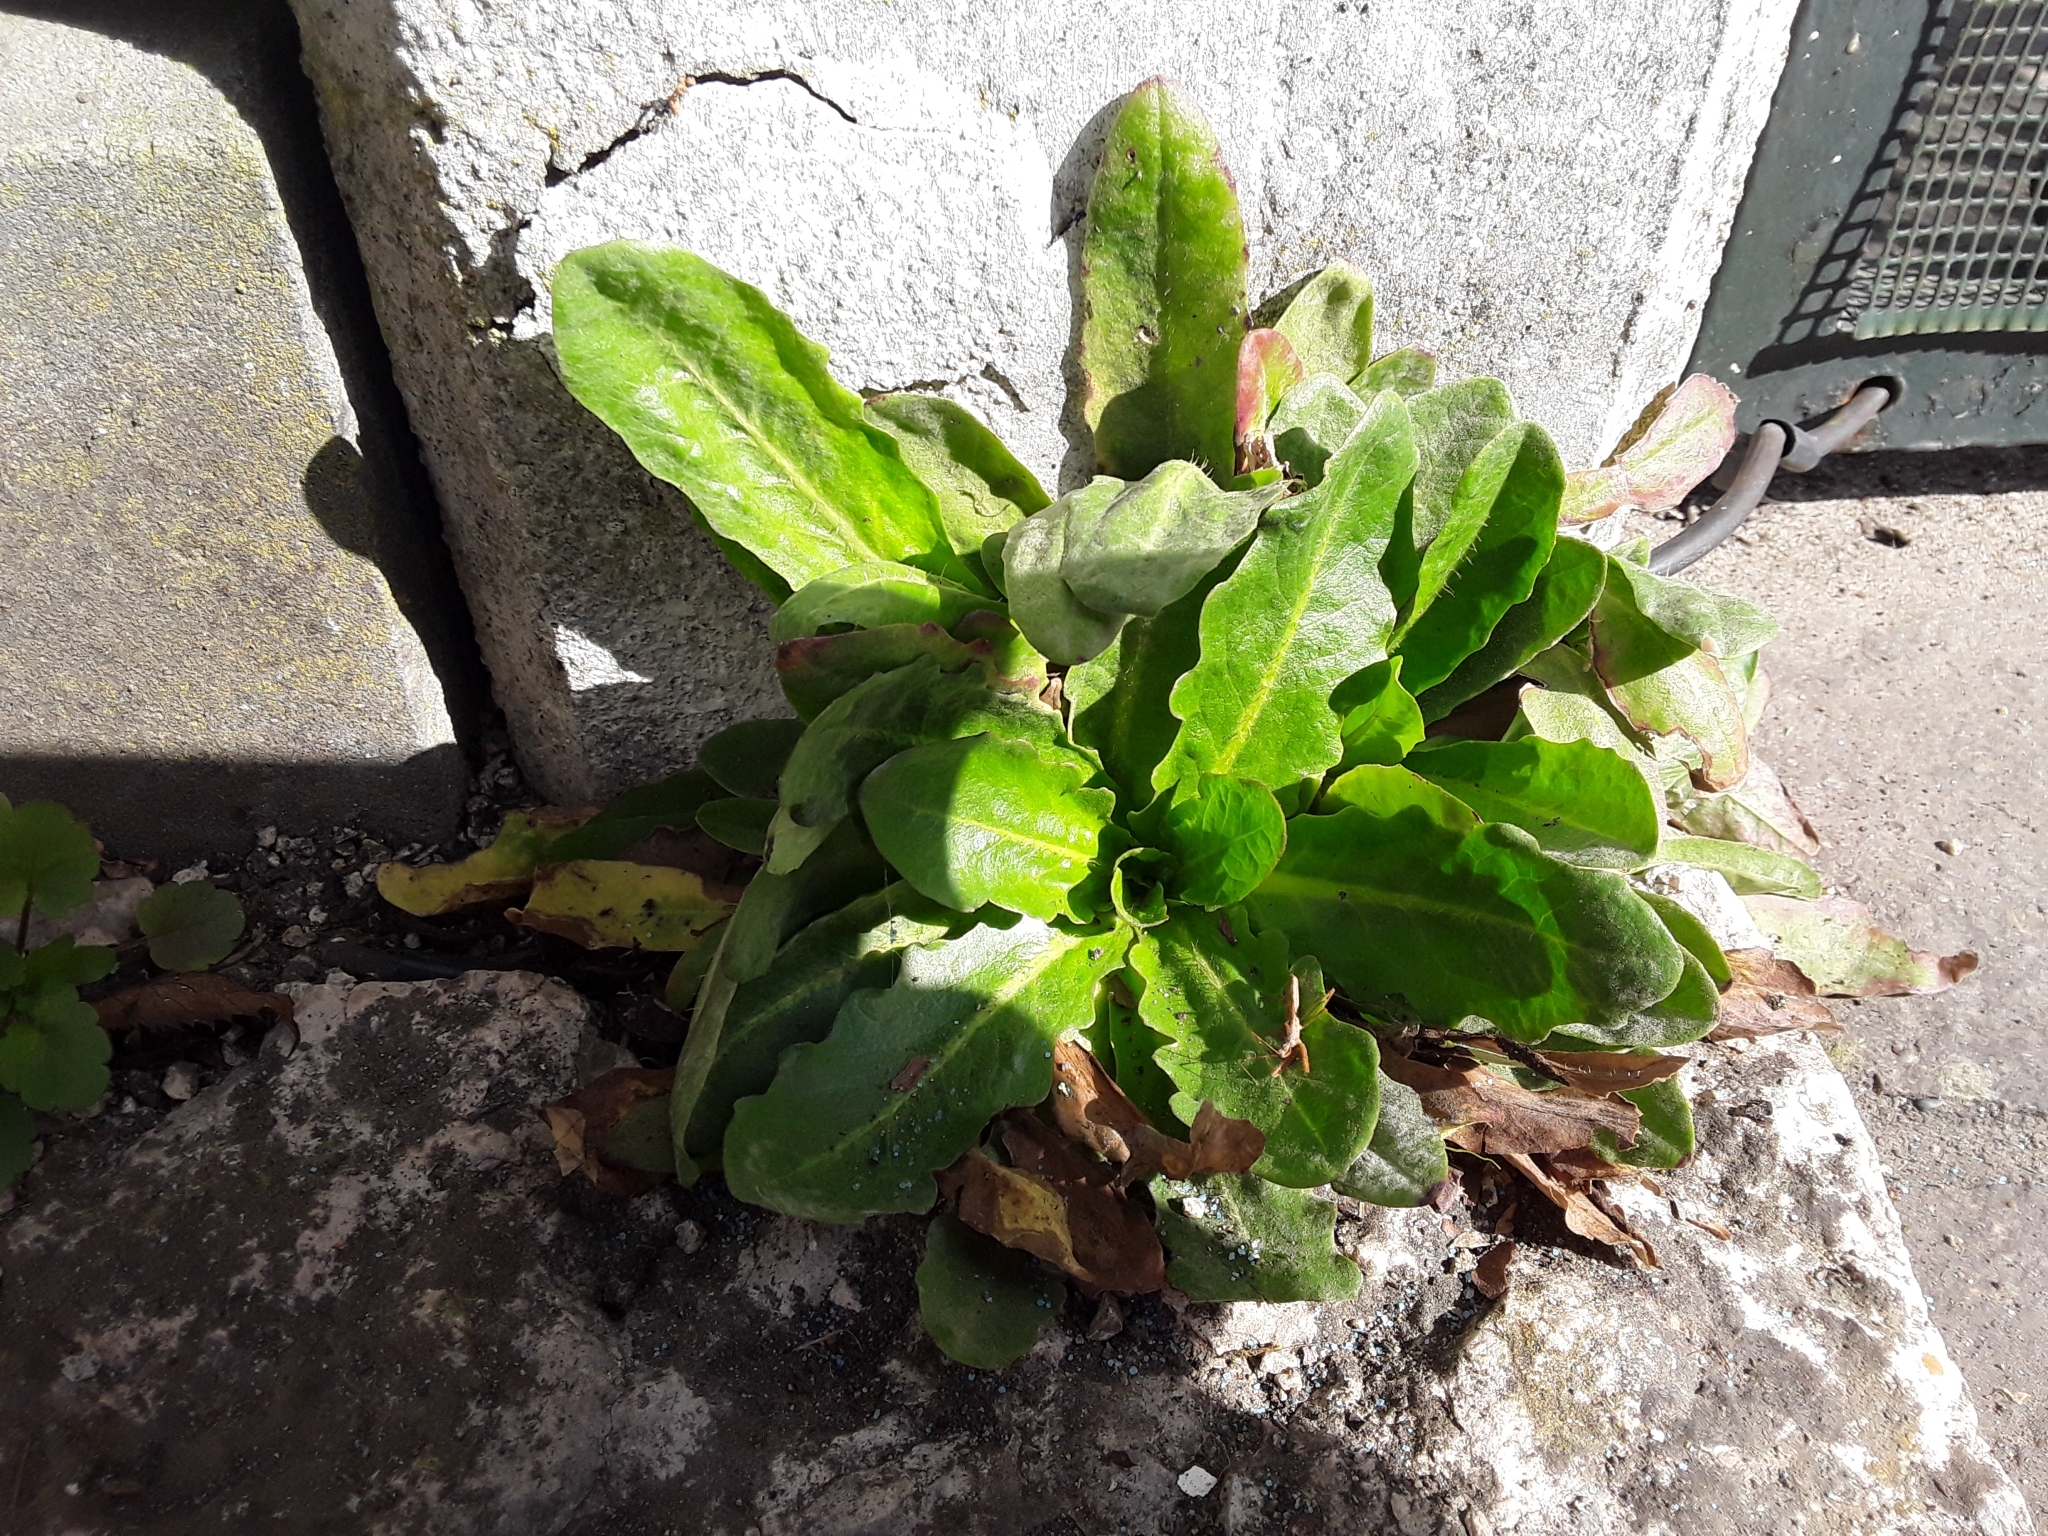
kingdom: Plantae
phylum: Tracheophyta
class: Magnoliopsida
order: Asterales
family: Asteraceae
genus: Hypochaeris
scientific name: Hypochaeris radicata
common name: Flatweed
